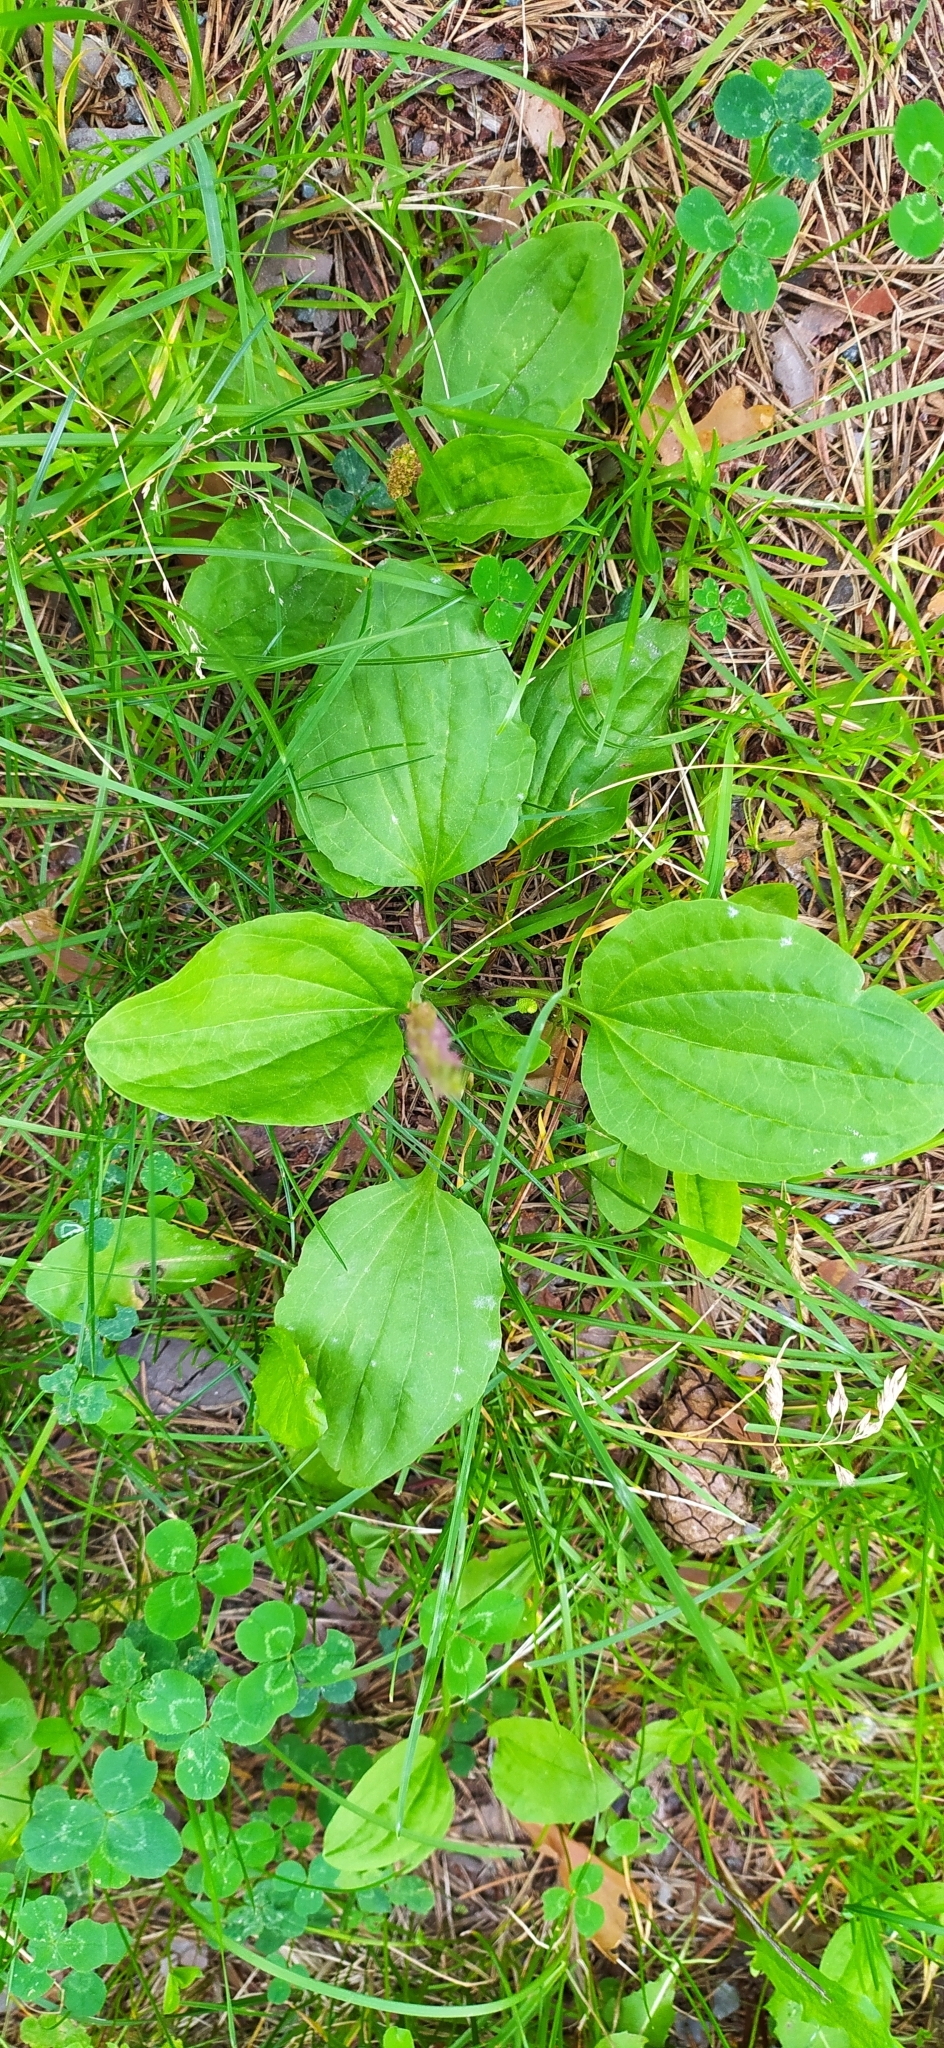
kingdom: Plantae
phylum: Tracheophyta
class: Magnoliopsida
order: Lamiales
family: Plantaginaceae
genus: Plantago
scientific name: Plantago major
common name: Common plantain
